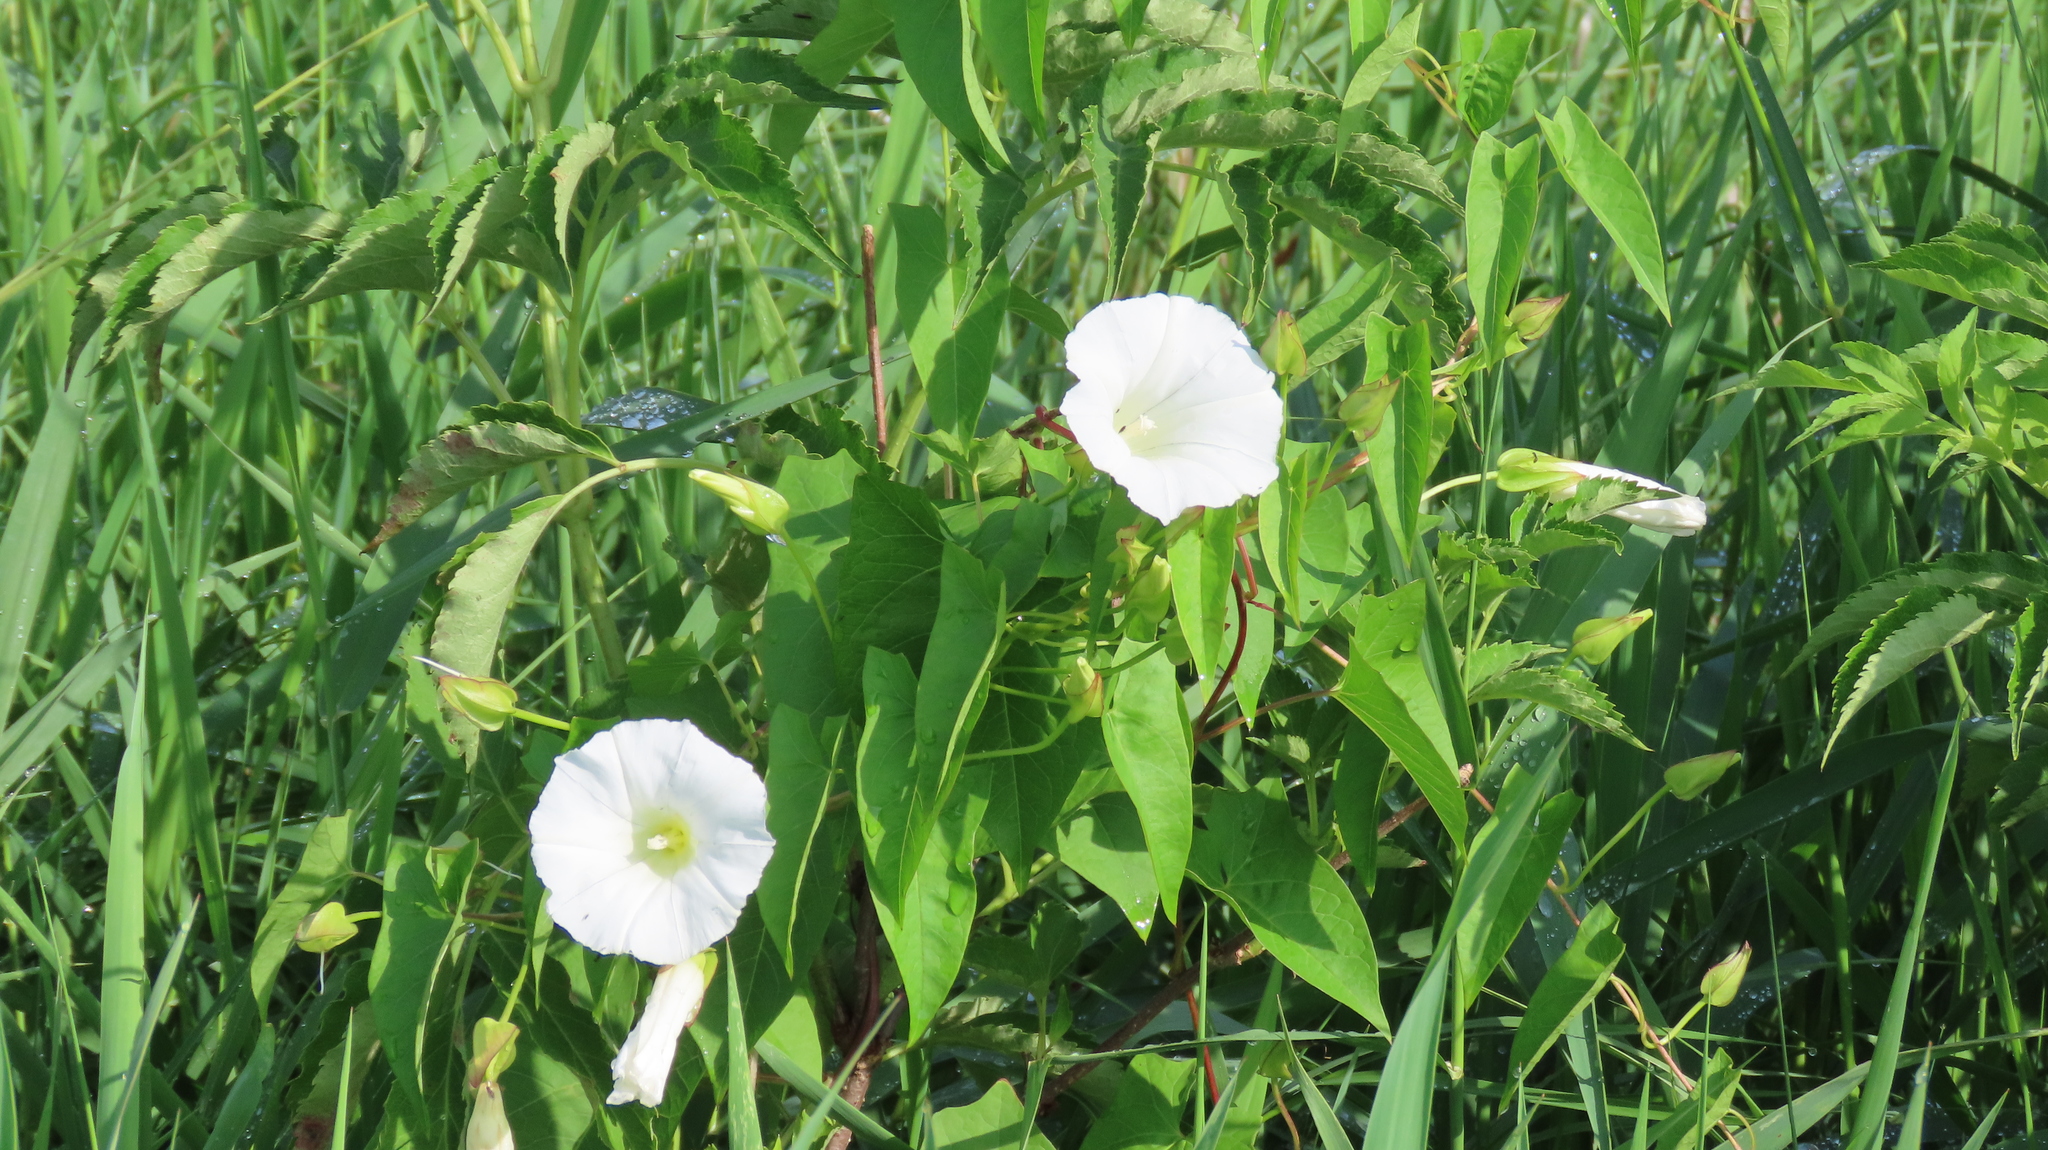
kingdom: Plantae
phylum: Tracheophyta
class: Magnoliopsida
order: Solanales
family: Convolvulaceae
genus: Calystegia
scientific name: Calystegia sepium
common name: Hedge bindweed
